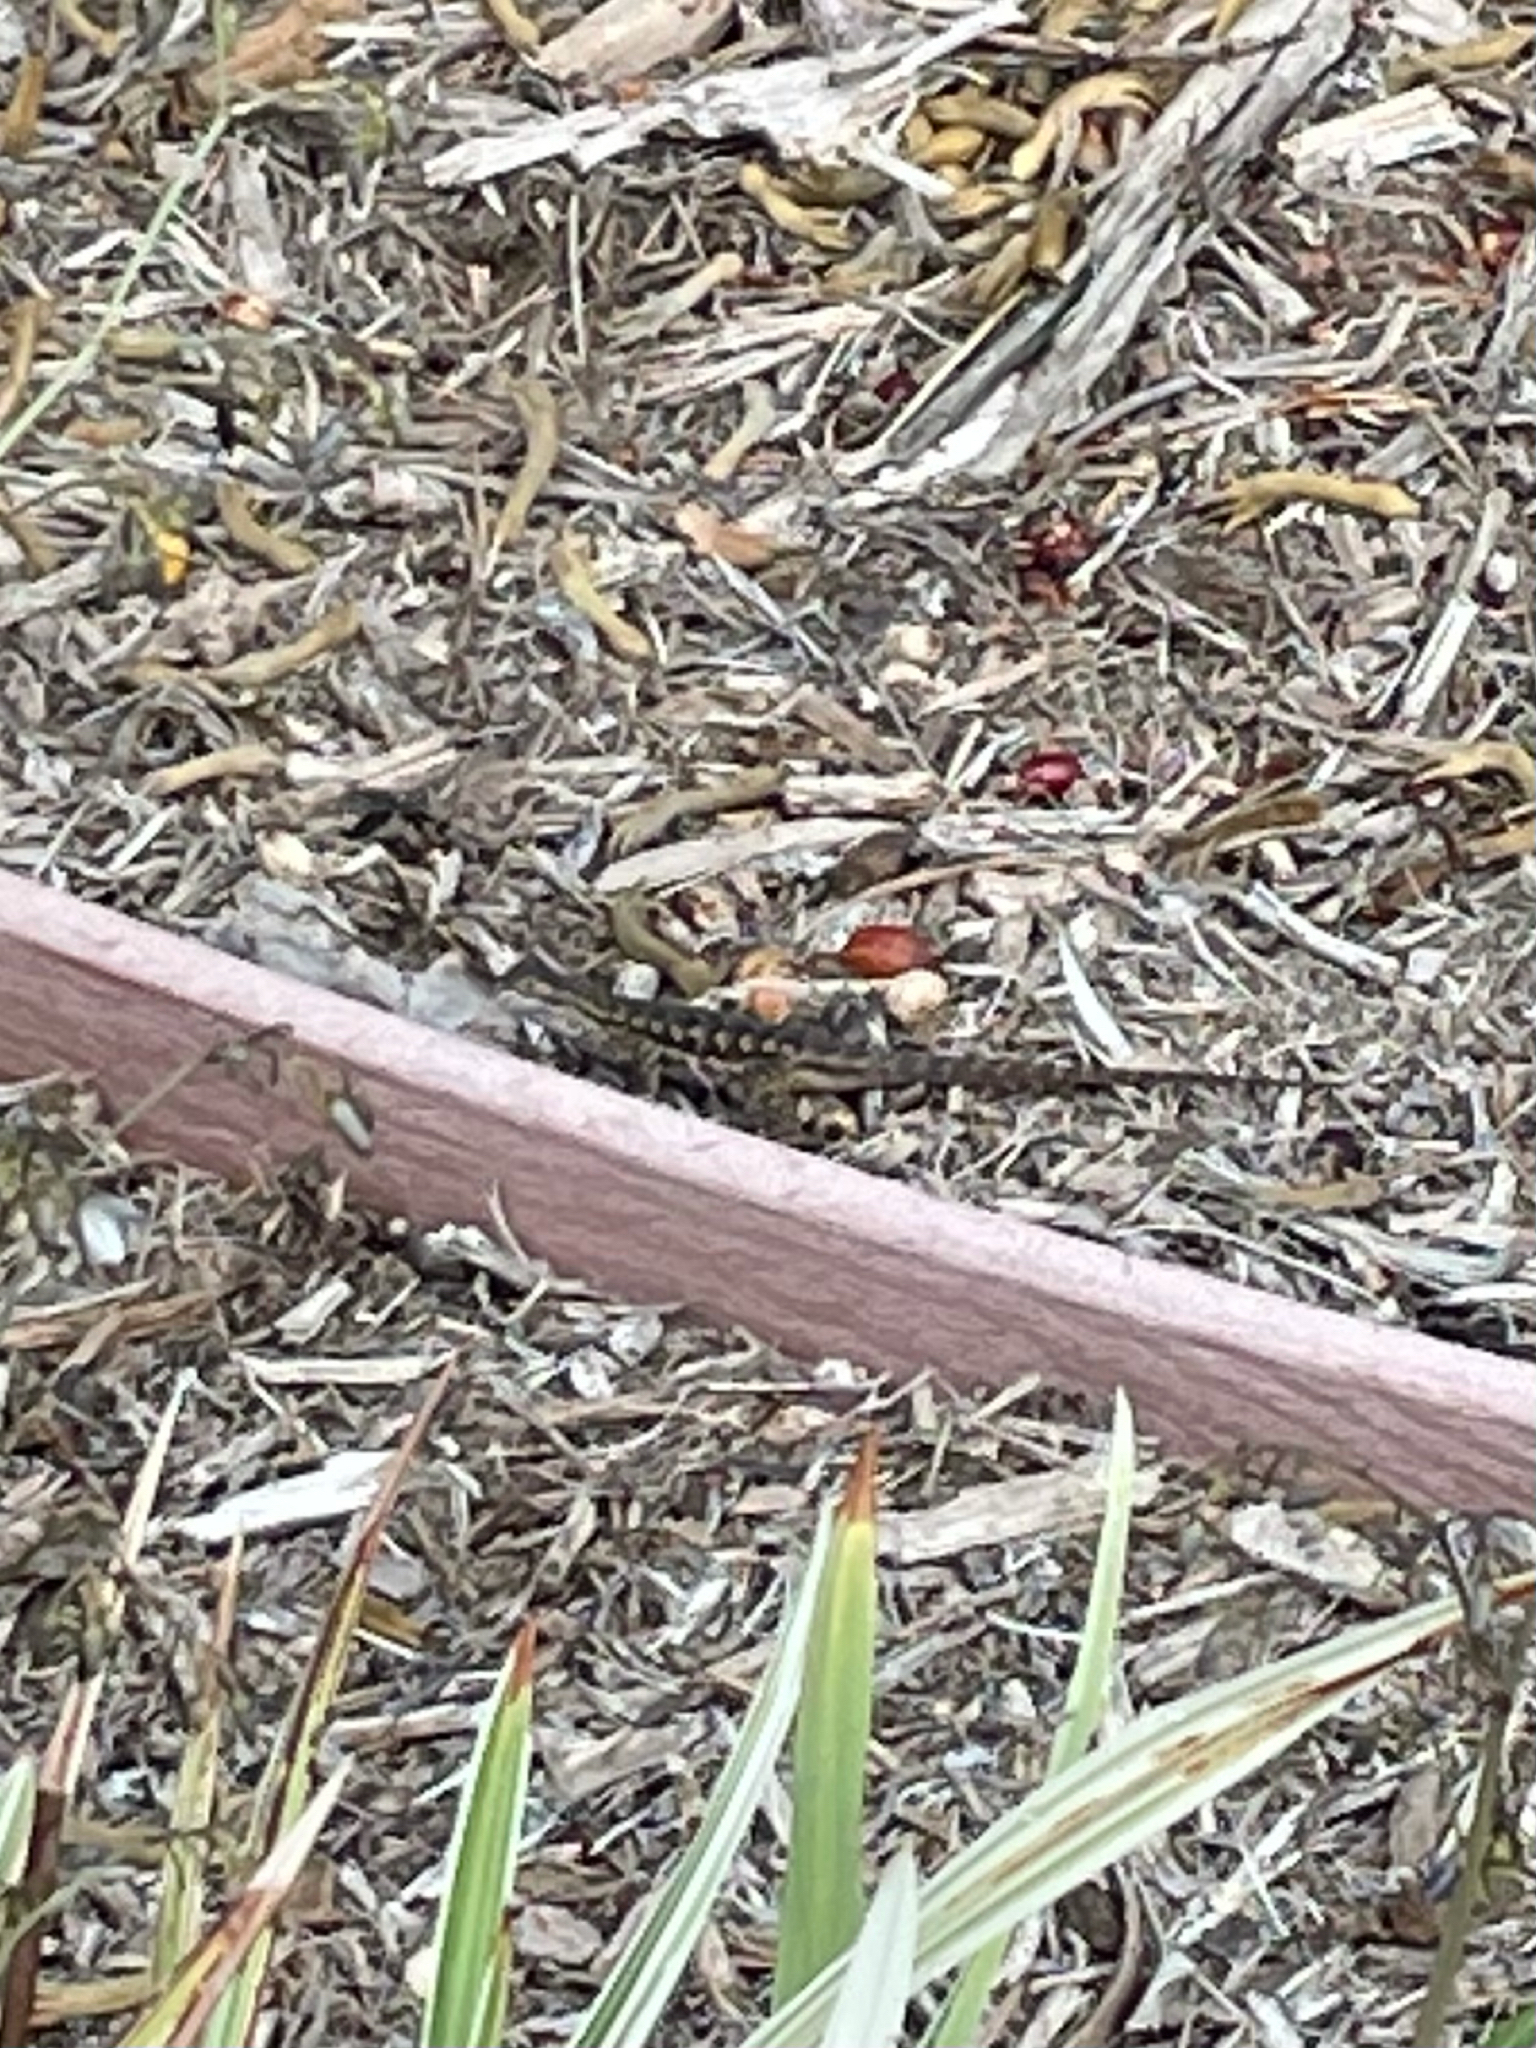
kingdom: Animalia
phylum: Chordata
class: Squamata
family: Phrynosomatidae
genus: Sceloporus
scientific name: Sceloporus occidentalis
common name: Western fence lizard
